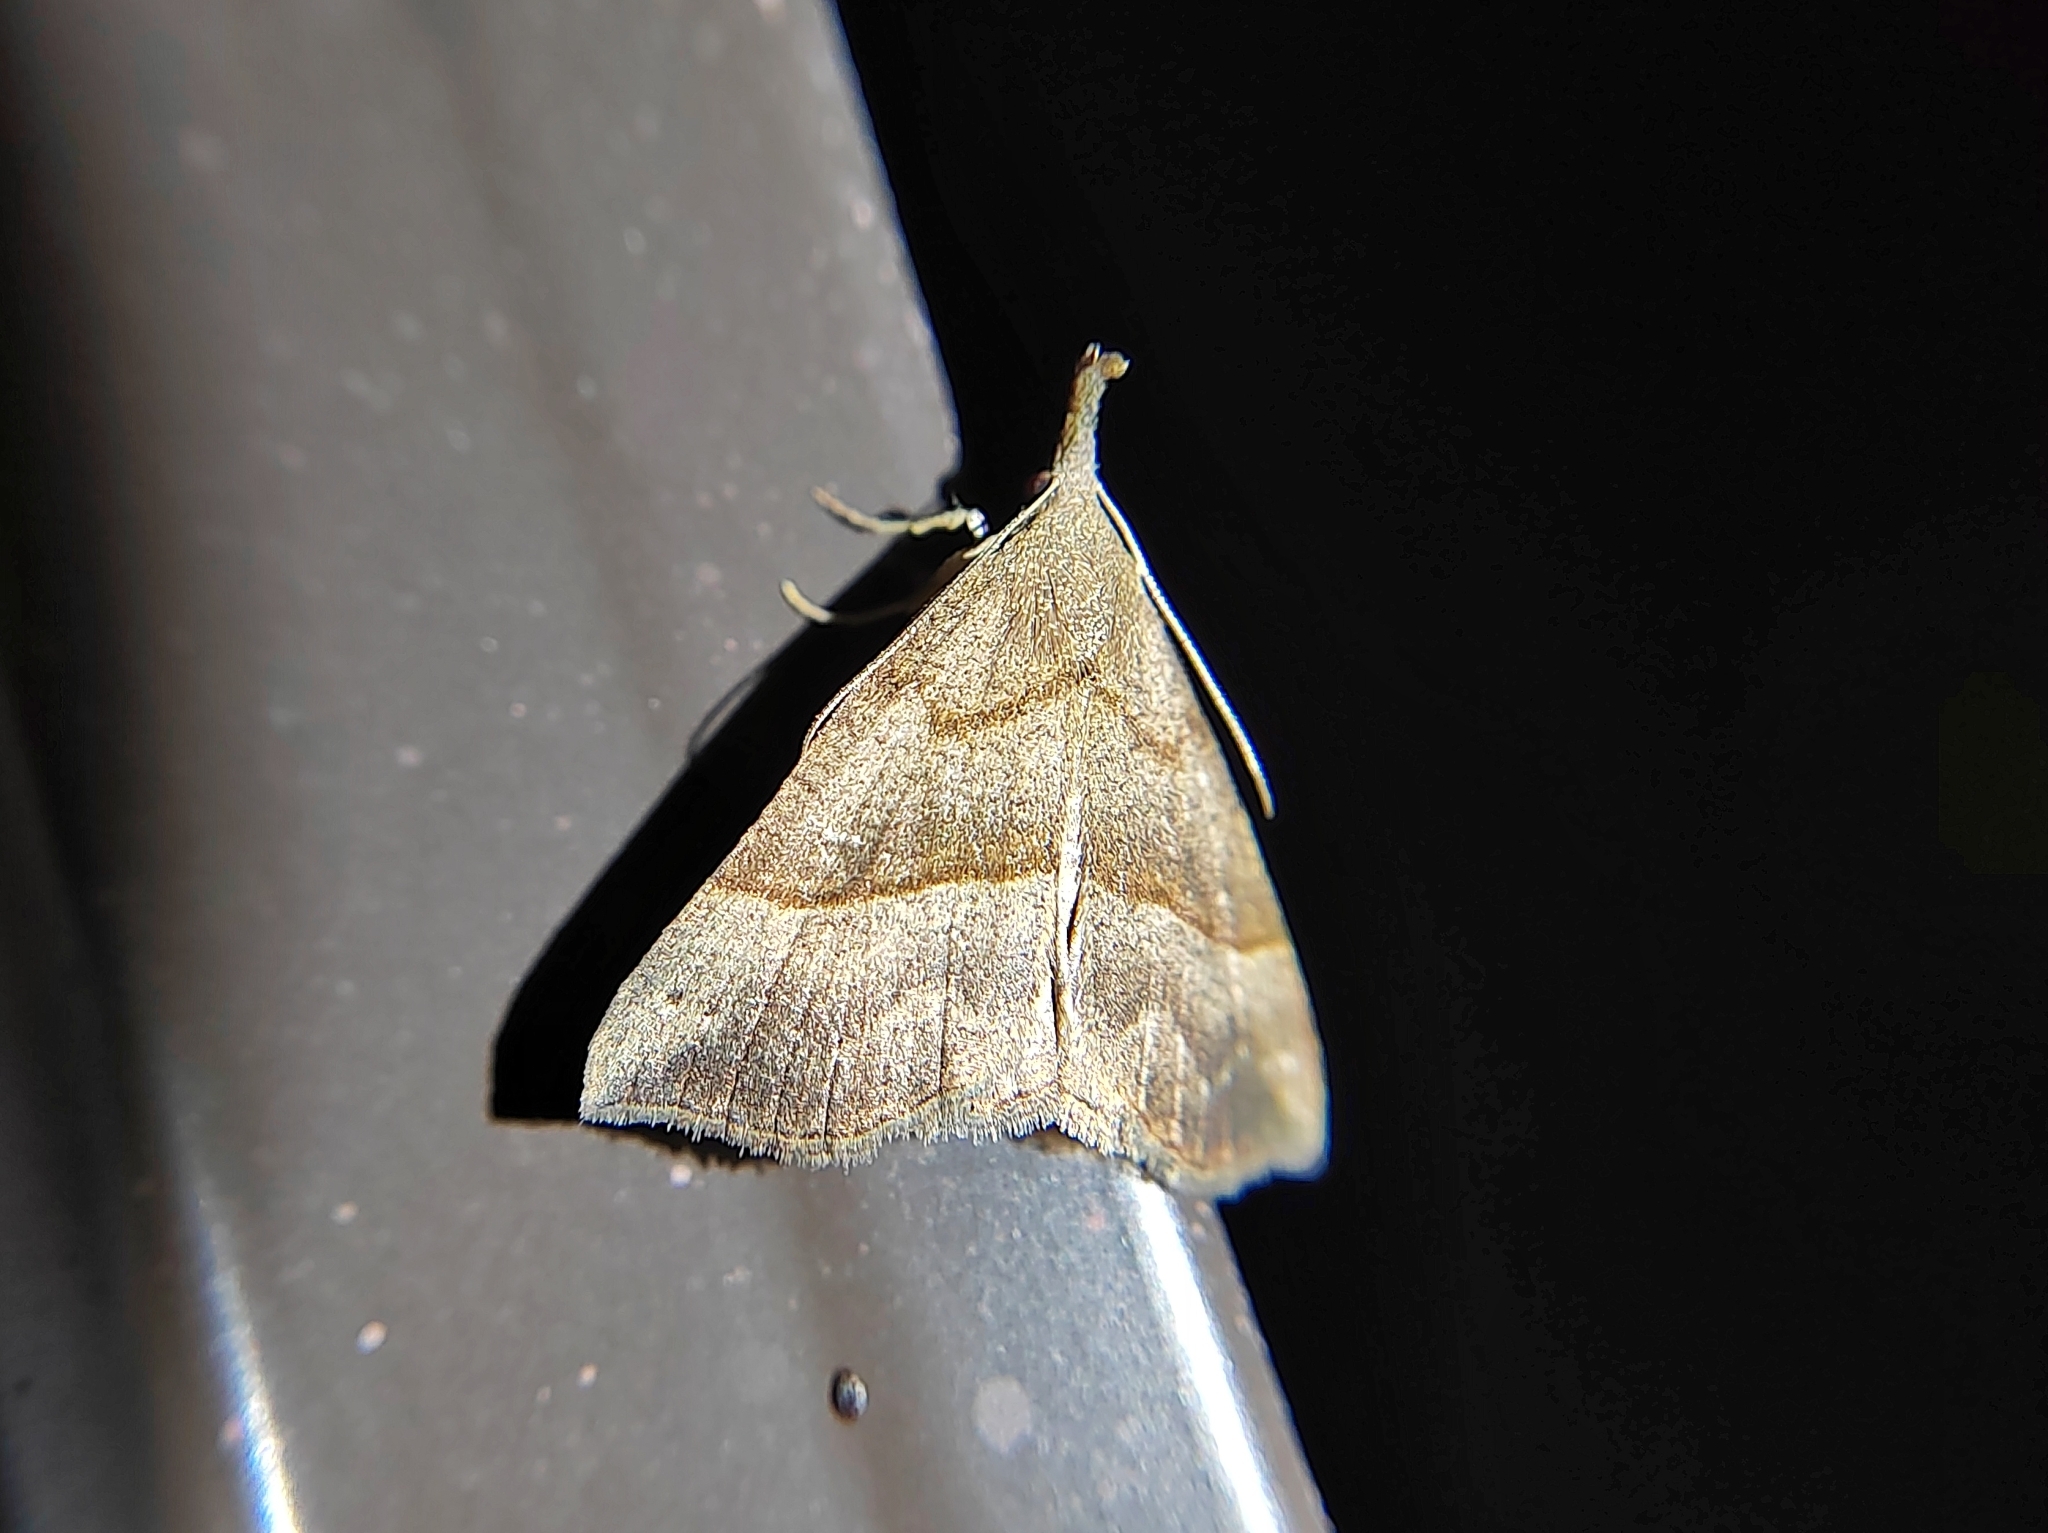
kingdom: Animalia
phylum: Arthropoda
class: Insecta
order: Lepidoptera
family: Erebidae
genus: Hypena
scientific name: Hypena proboscidalis
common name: Snout
